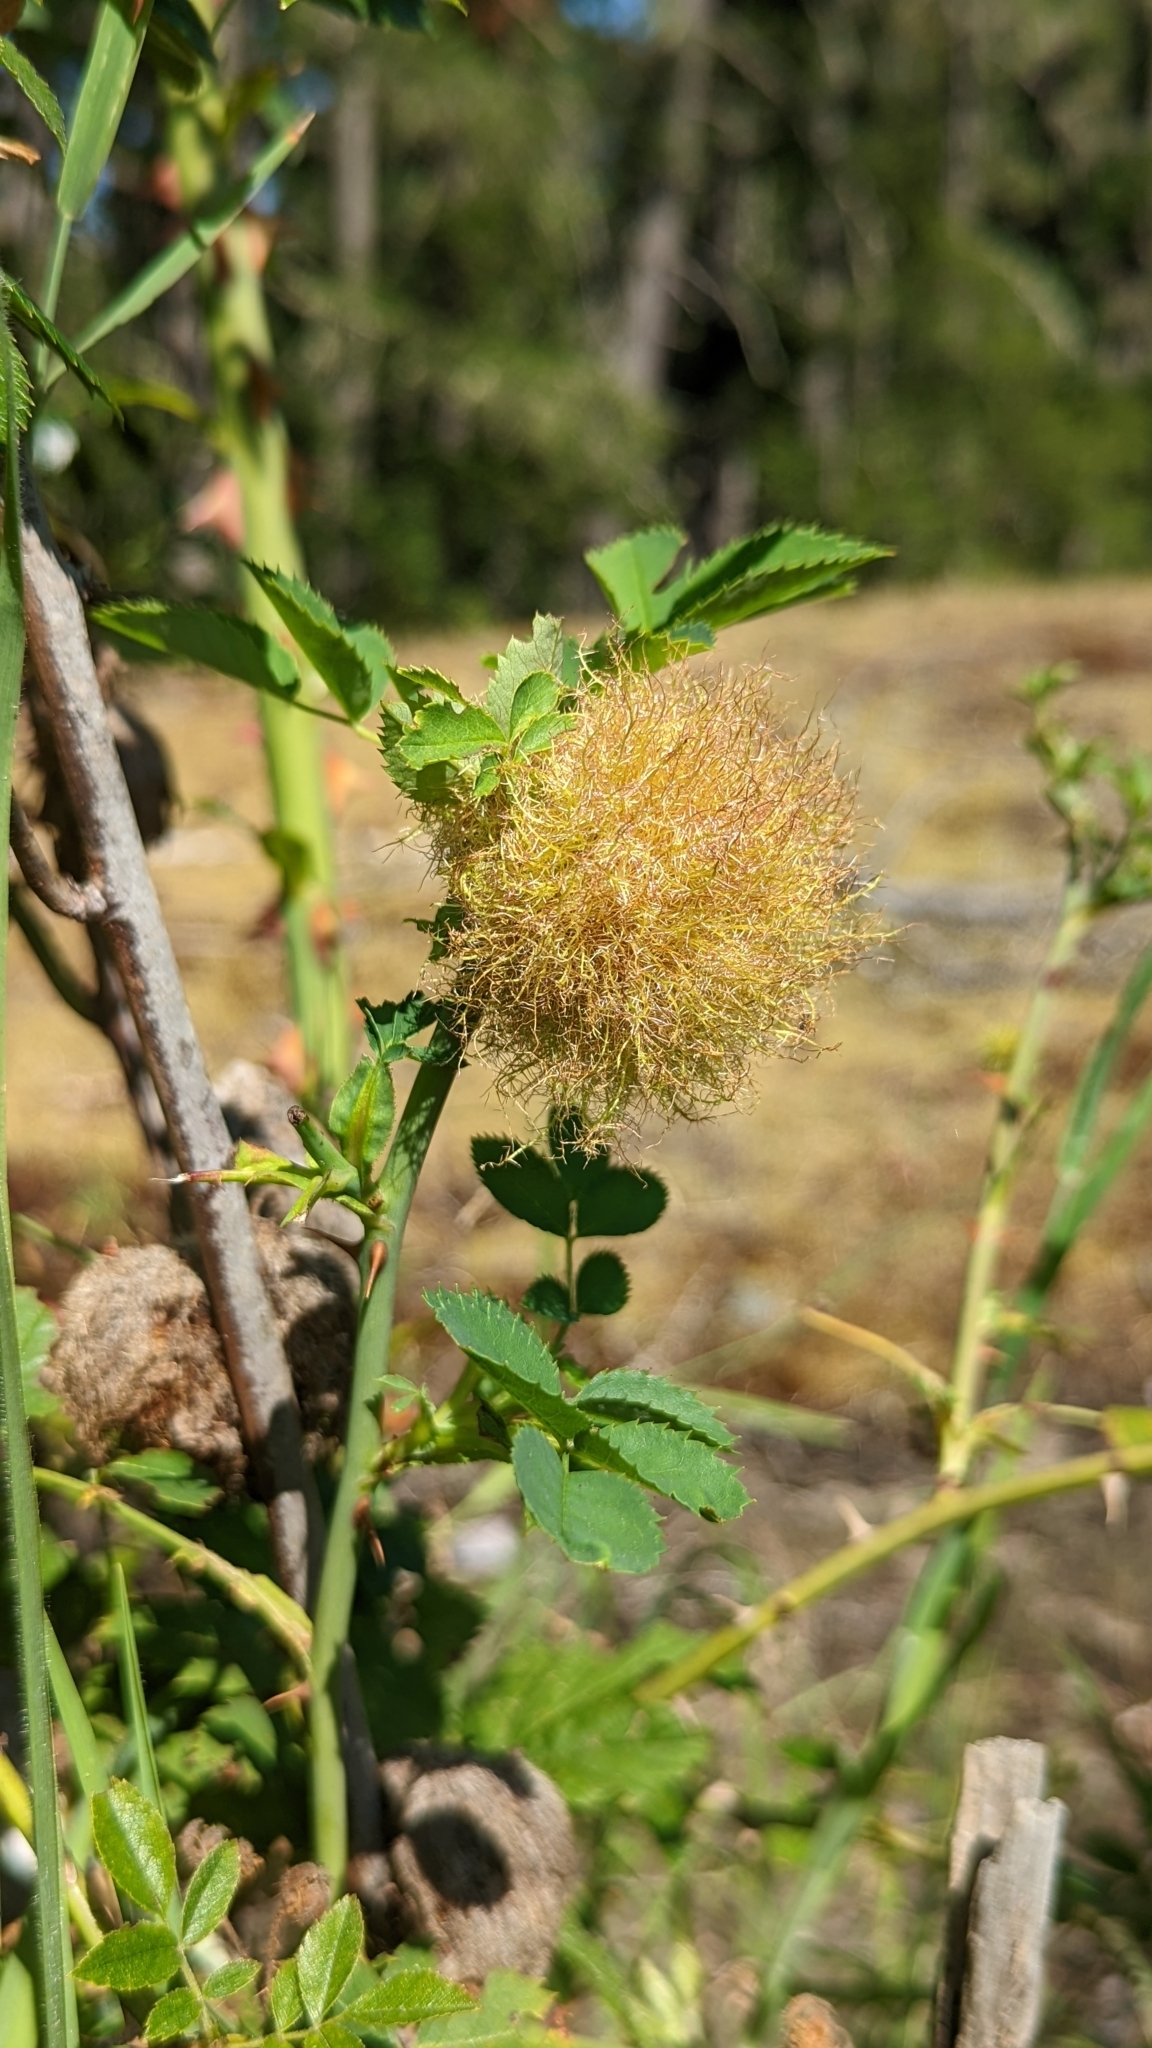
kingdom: Animalia
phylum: Arthropoda
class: Insecta
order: Hymenoptera
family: Cynipidae
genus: Diplolepis
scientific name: Diplolepis rosae
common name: Bedeguar gall
